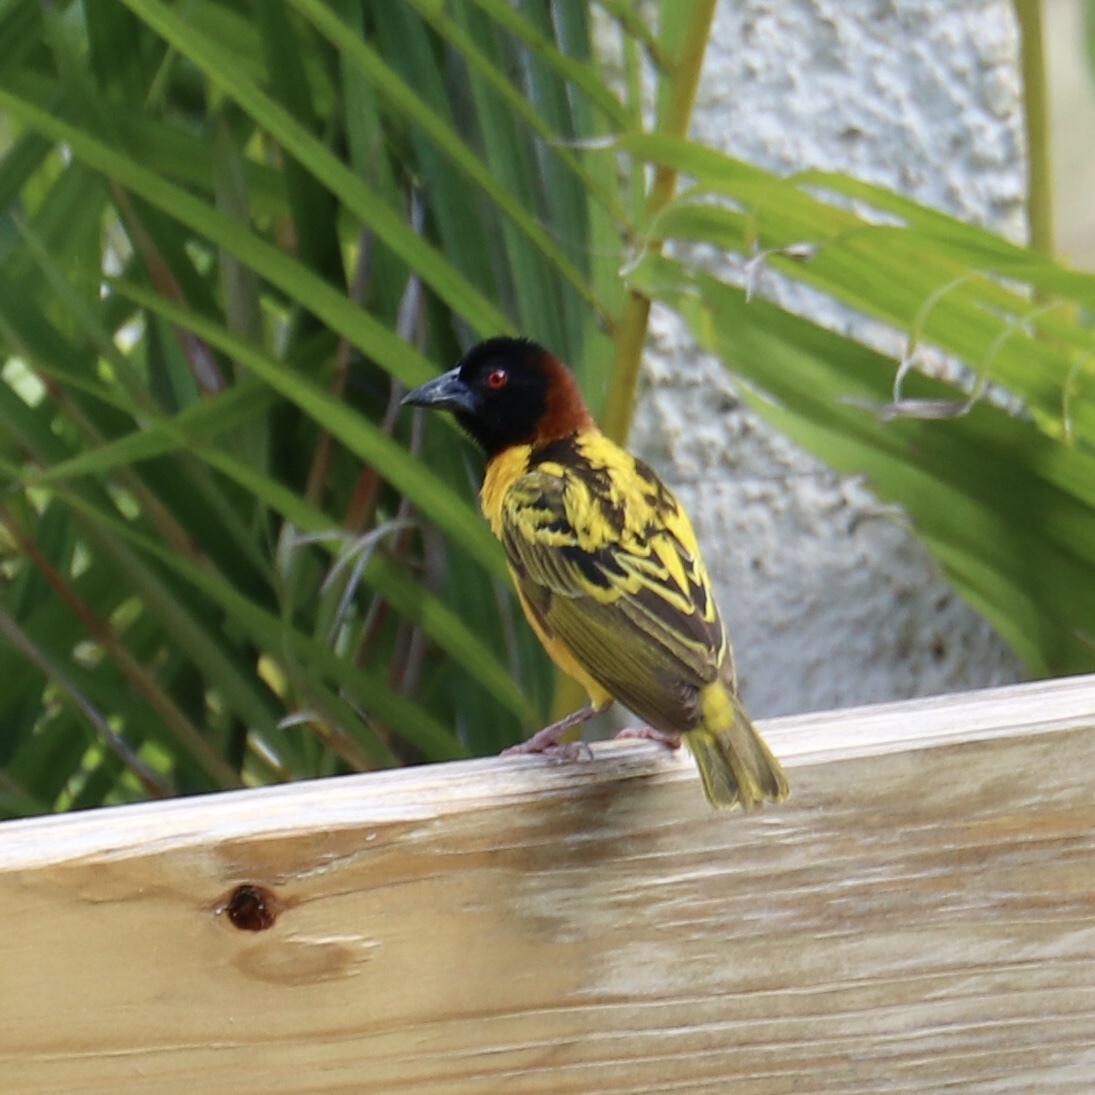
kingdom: Animalia
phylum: Chordata
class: Aves
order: Passeriformes
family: Ploceidae
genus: Ploceus
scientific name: Ploceus cucullatus
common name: Village weaver
